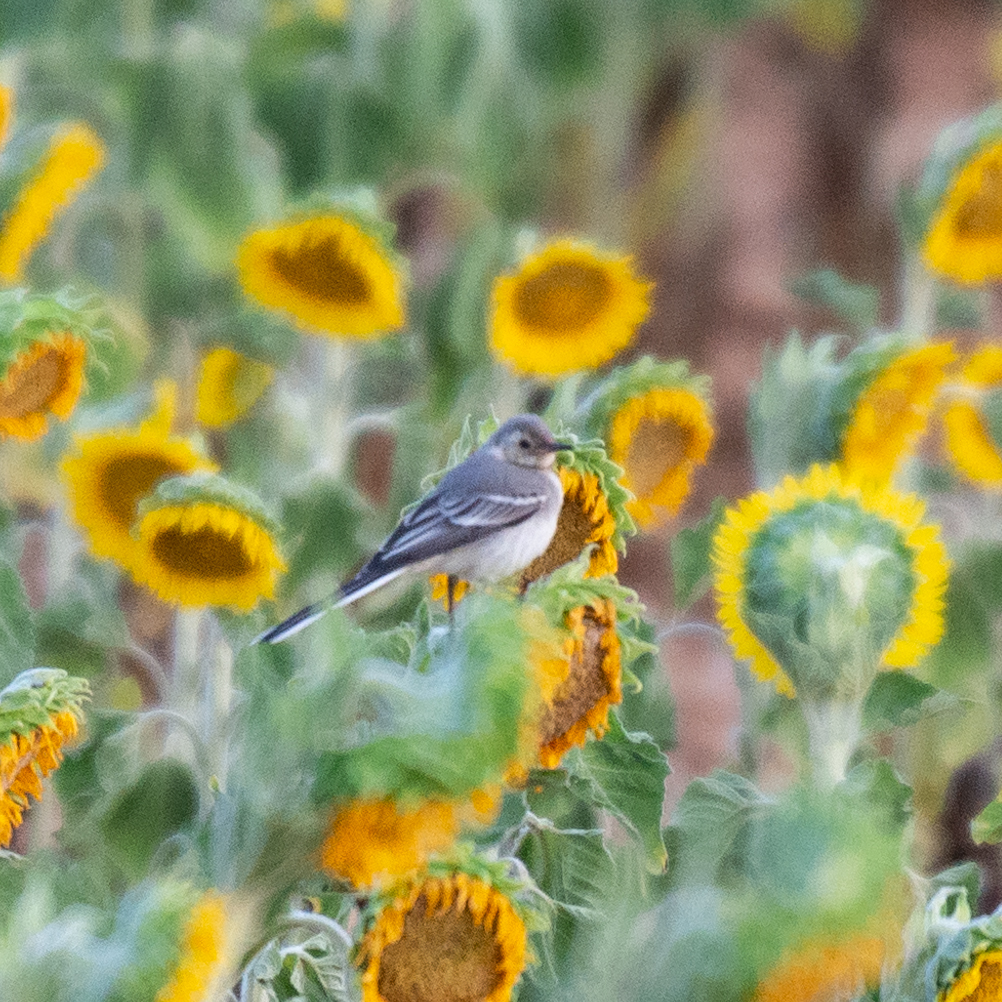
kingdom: Animalia
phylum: Chordata
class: Aves
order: Passeriformes
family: Motacillidae
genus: Motacilla
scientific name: Motacilla alba
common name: White wagtail
